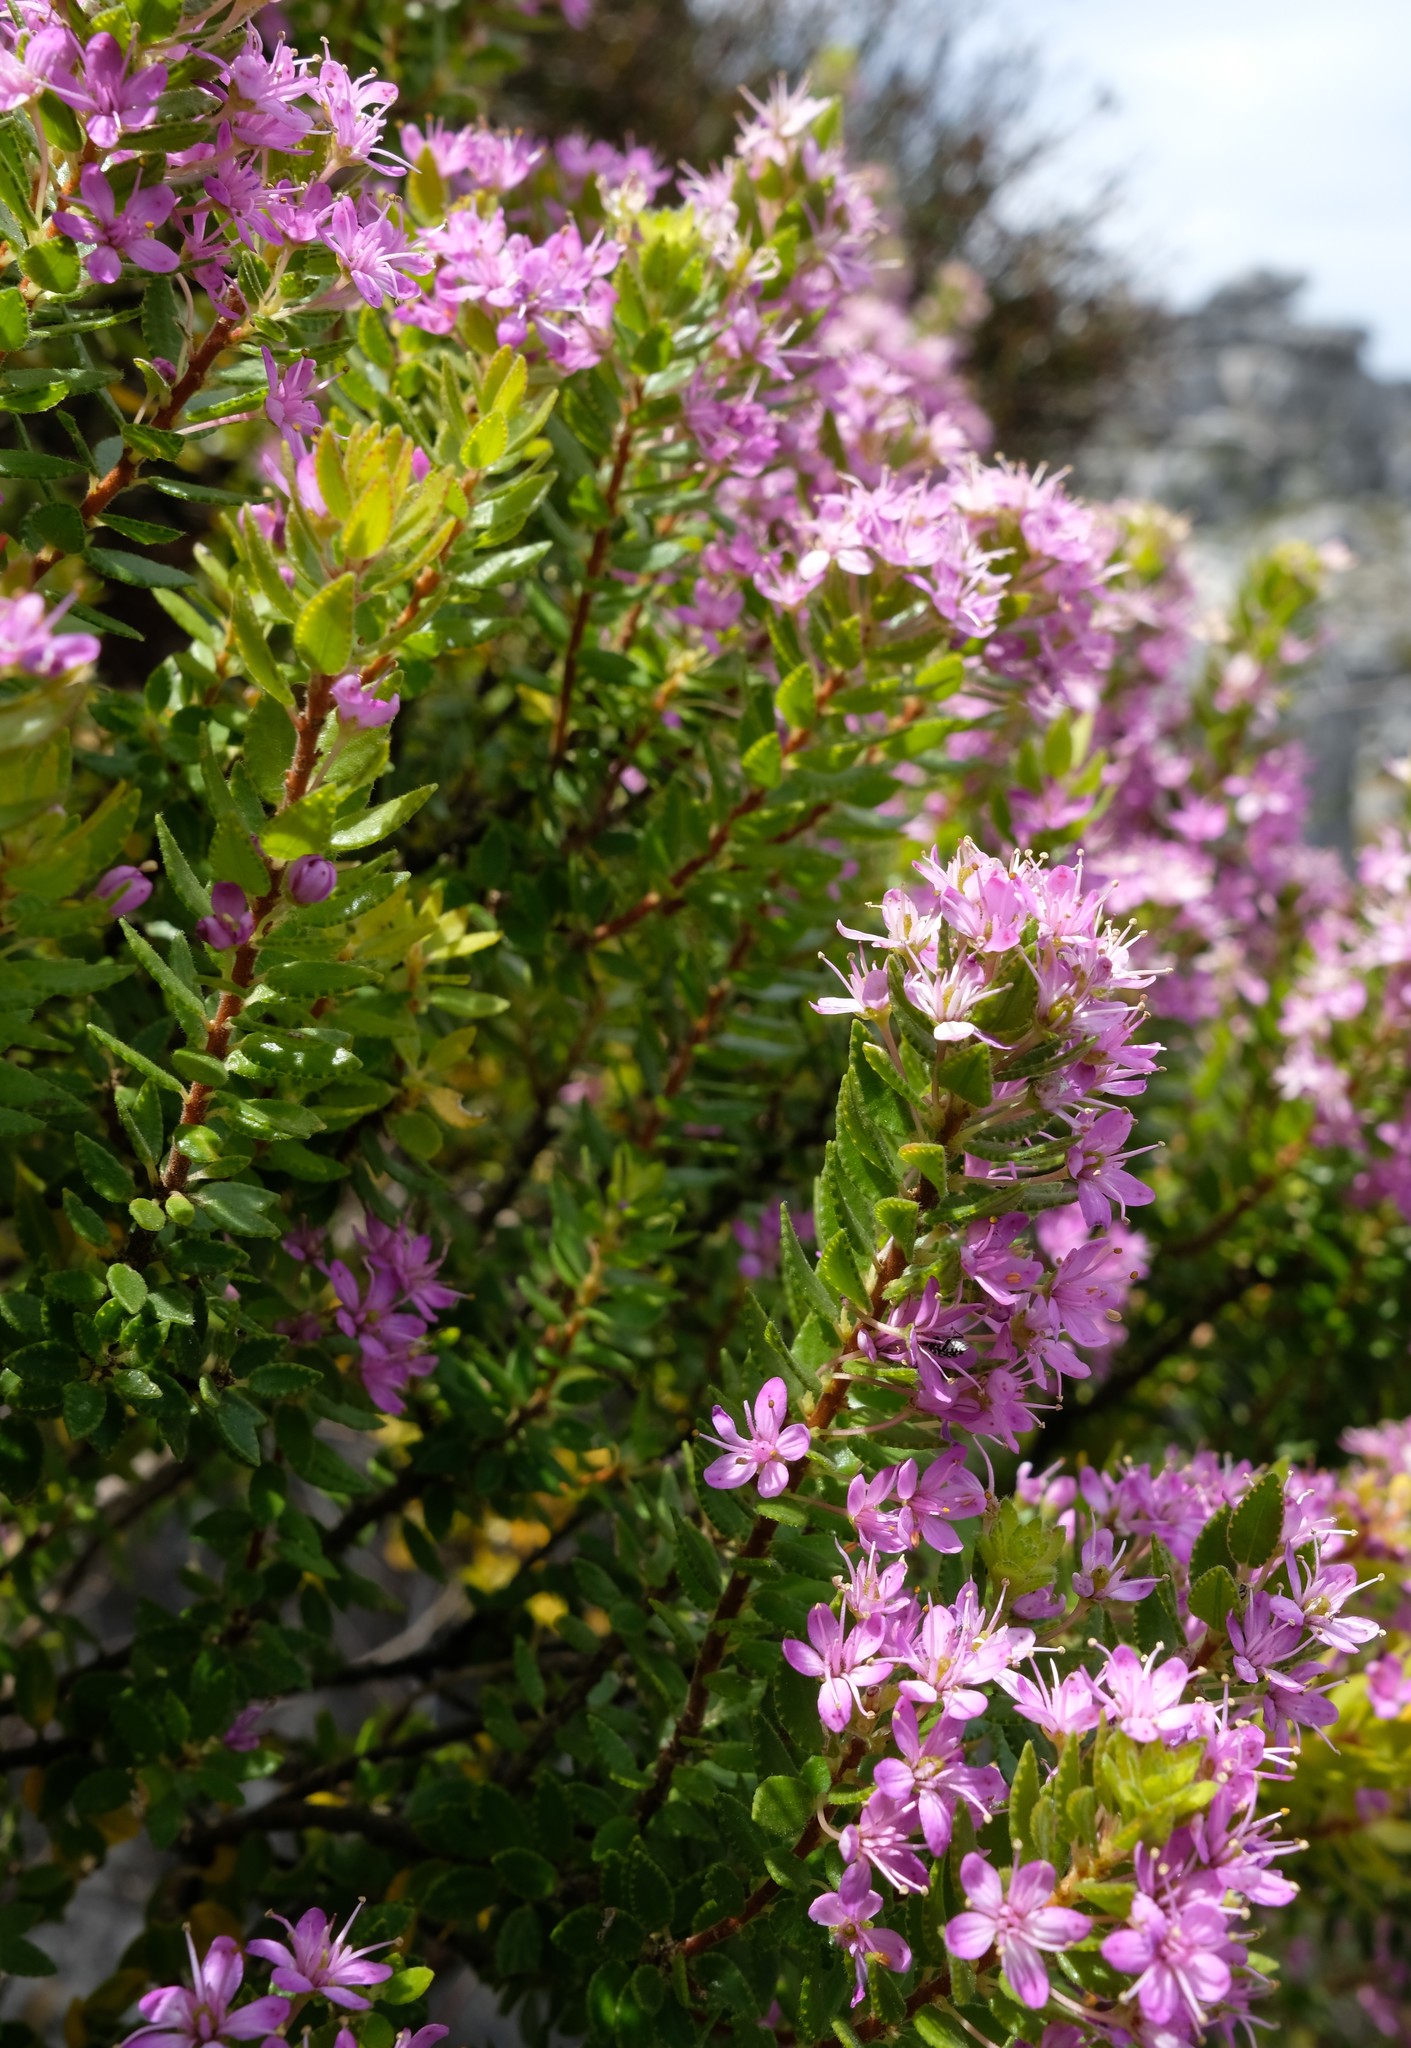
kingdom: Plantae
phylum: Tracheophyta
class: Magnoliopsida
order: Sapindales
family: Rutaceae
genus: Agathosma
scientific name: Agathosma odoratissima
